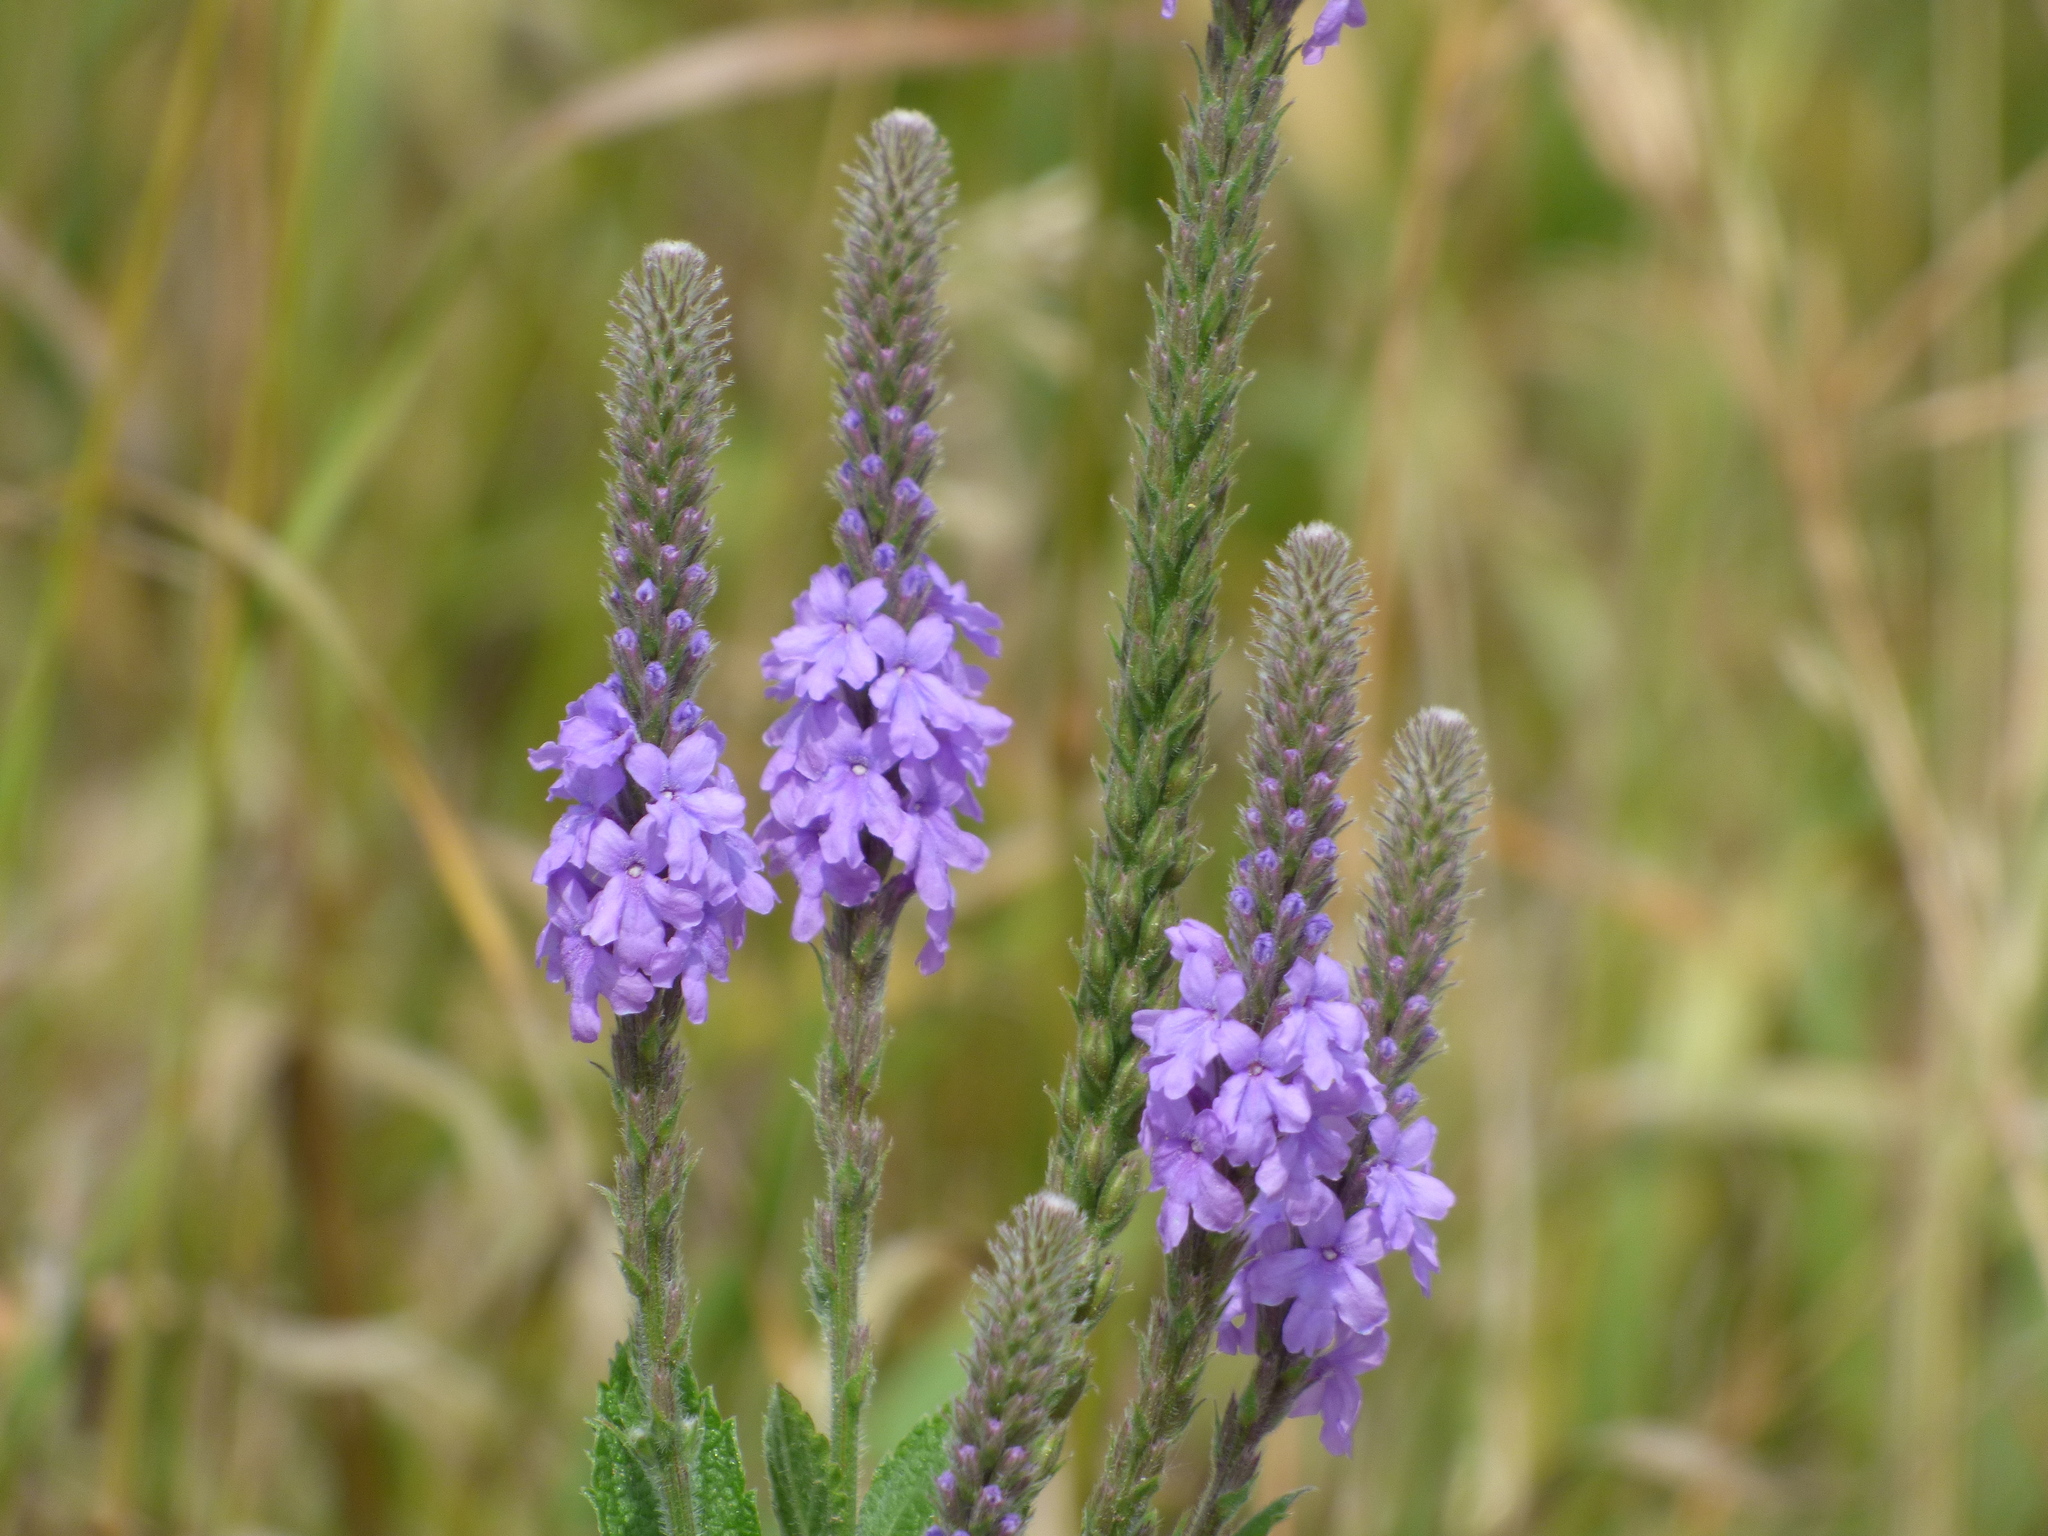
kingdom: Plantae
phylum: Tracheophyta
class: Magnoliopsida
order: Lamiales
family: Verbenaceae
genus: Verbena
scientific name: Verbena stricta
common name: Hoary vervain
